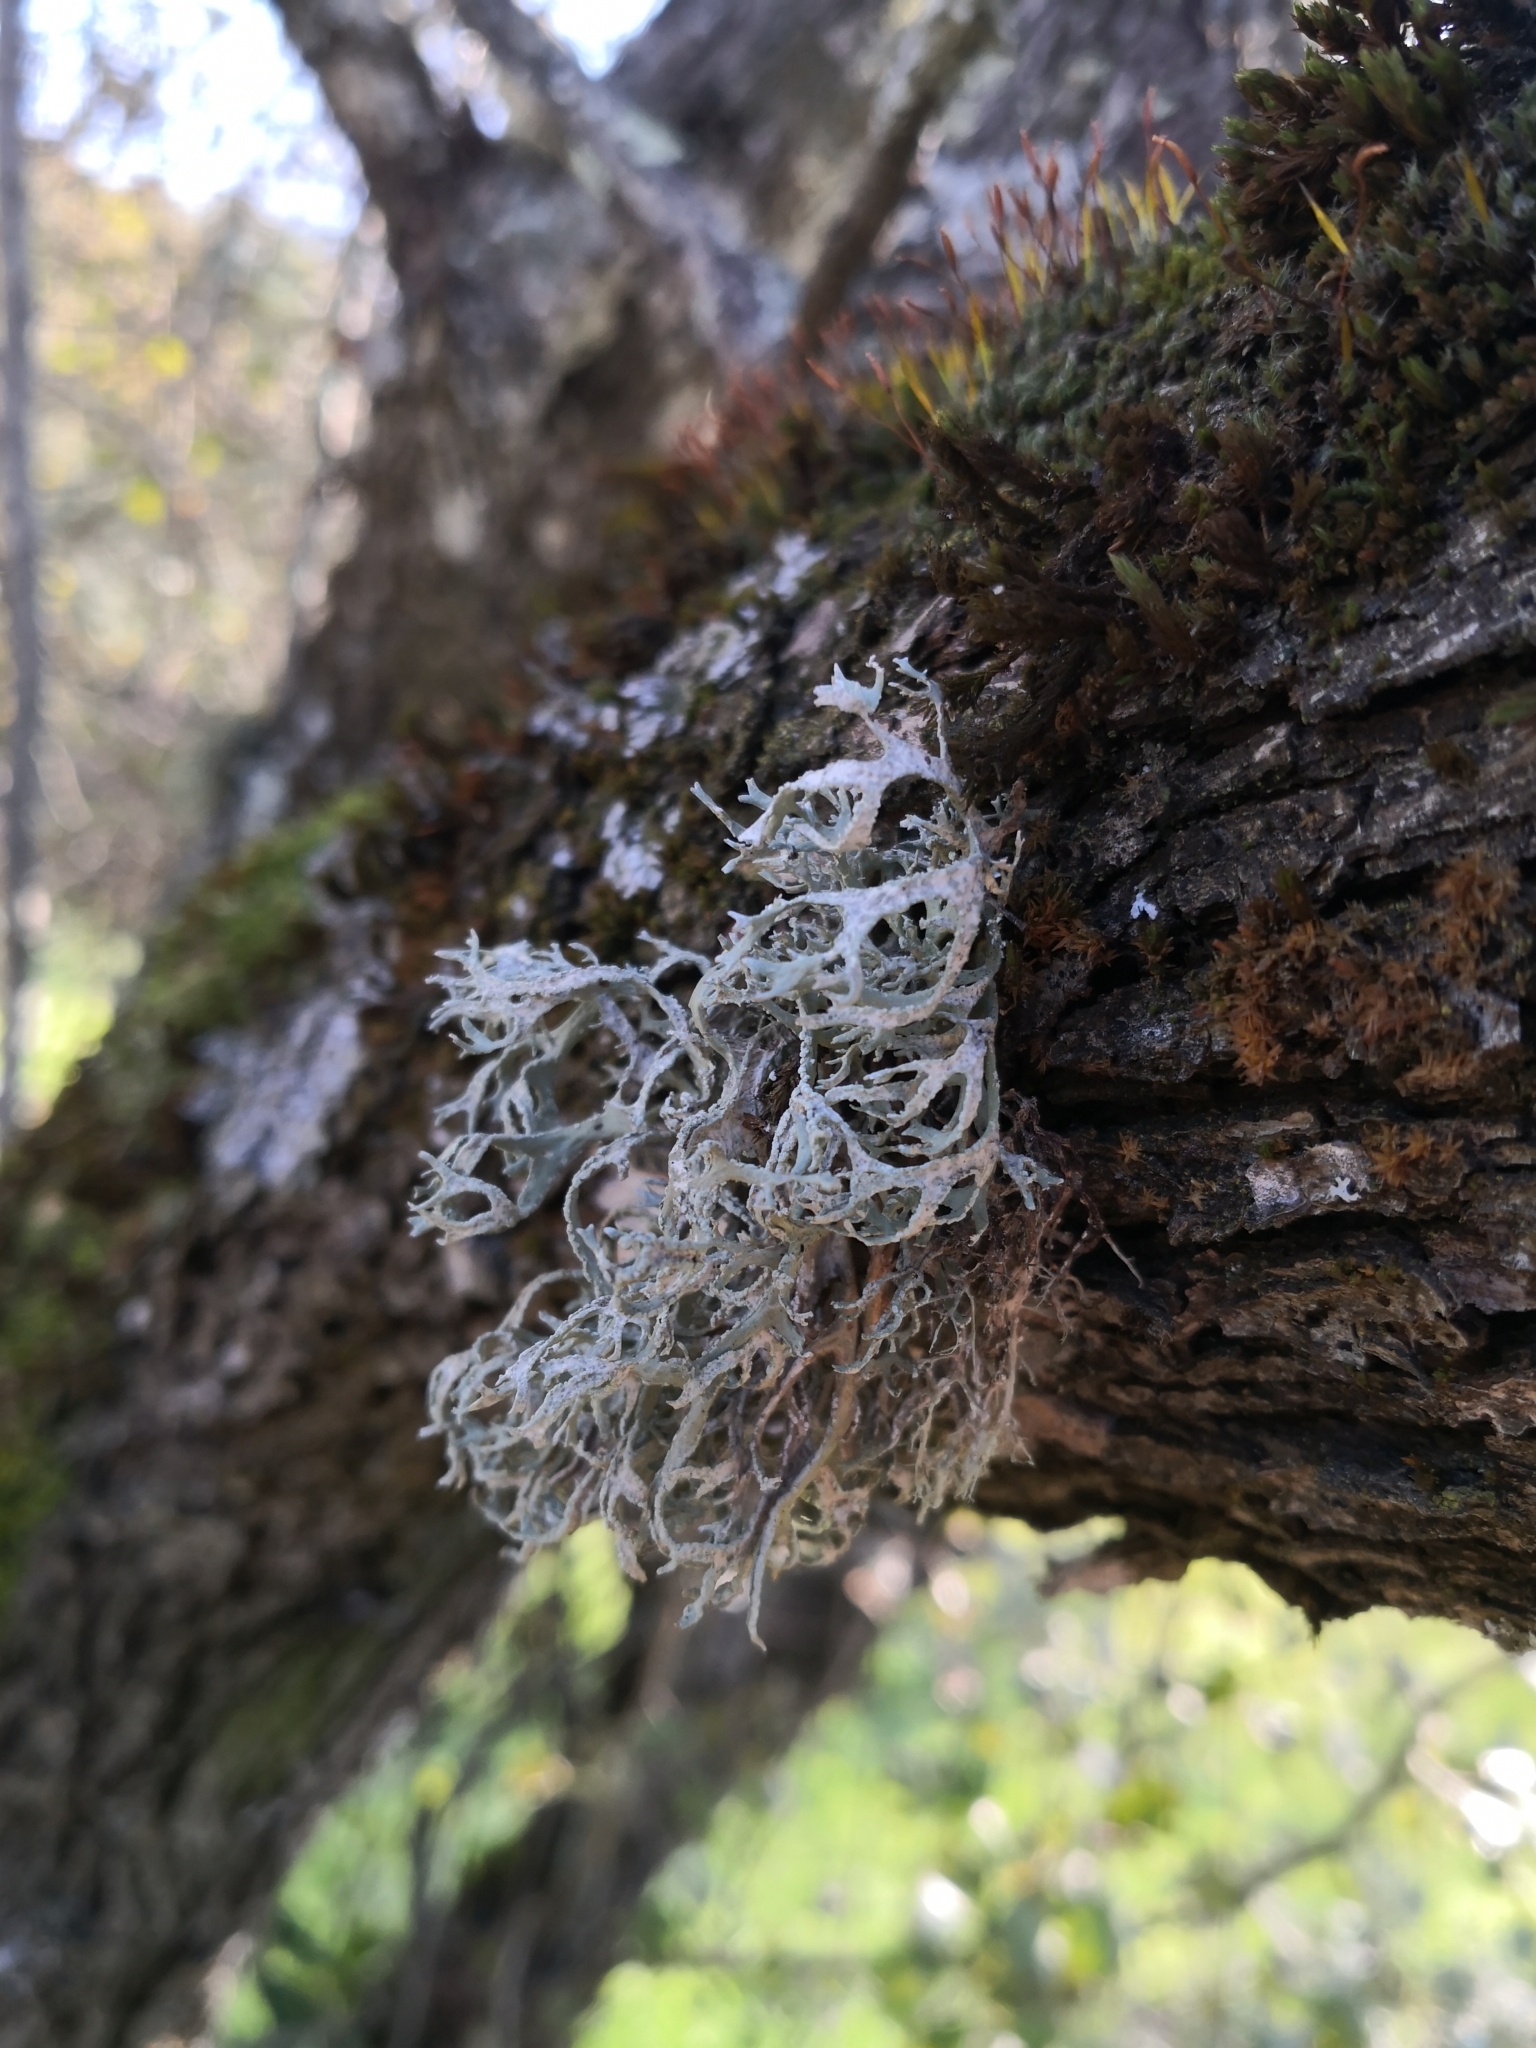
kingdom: Fungi
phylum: Ascomycota
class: Lecanoromycetes
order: Lecanorales
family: Parmeliaceae
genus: Evernia
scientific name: Evernia prunastri
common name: Oak moss
